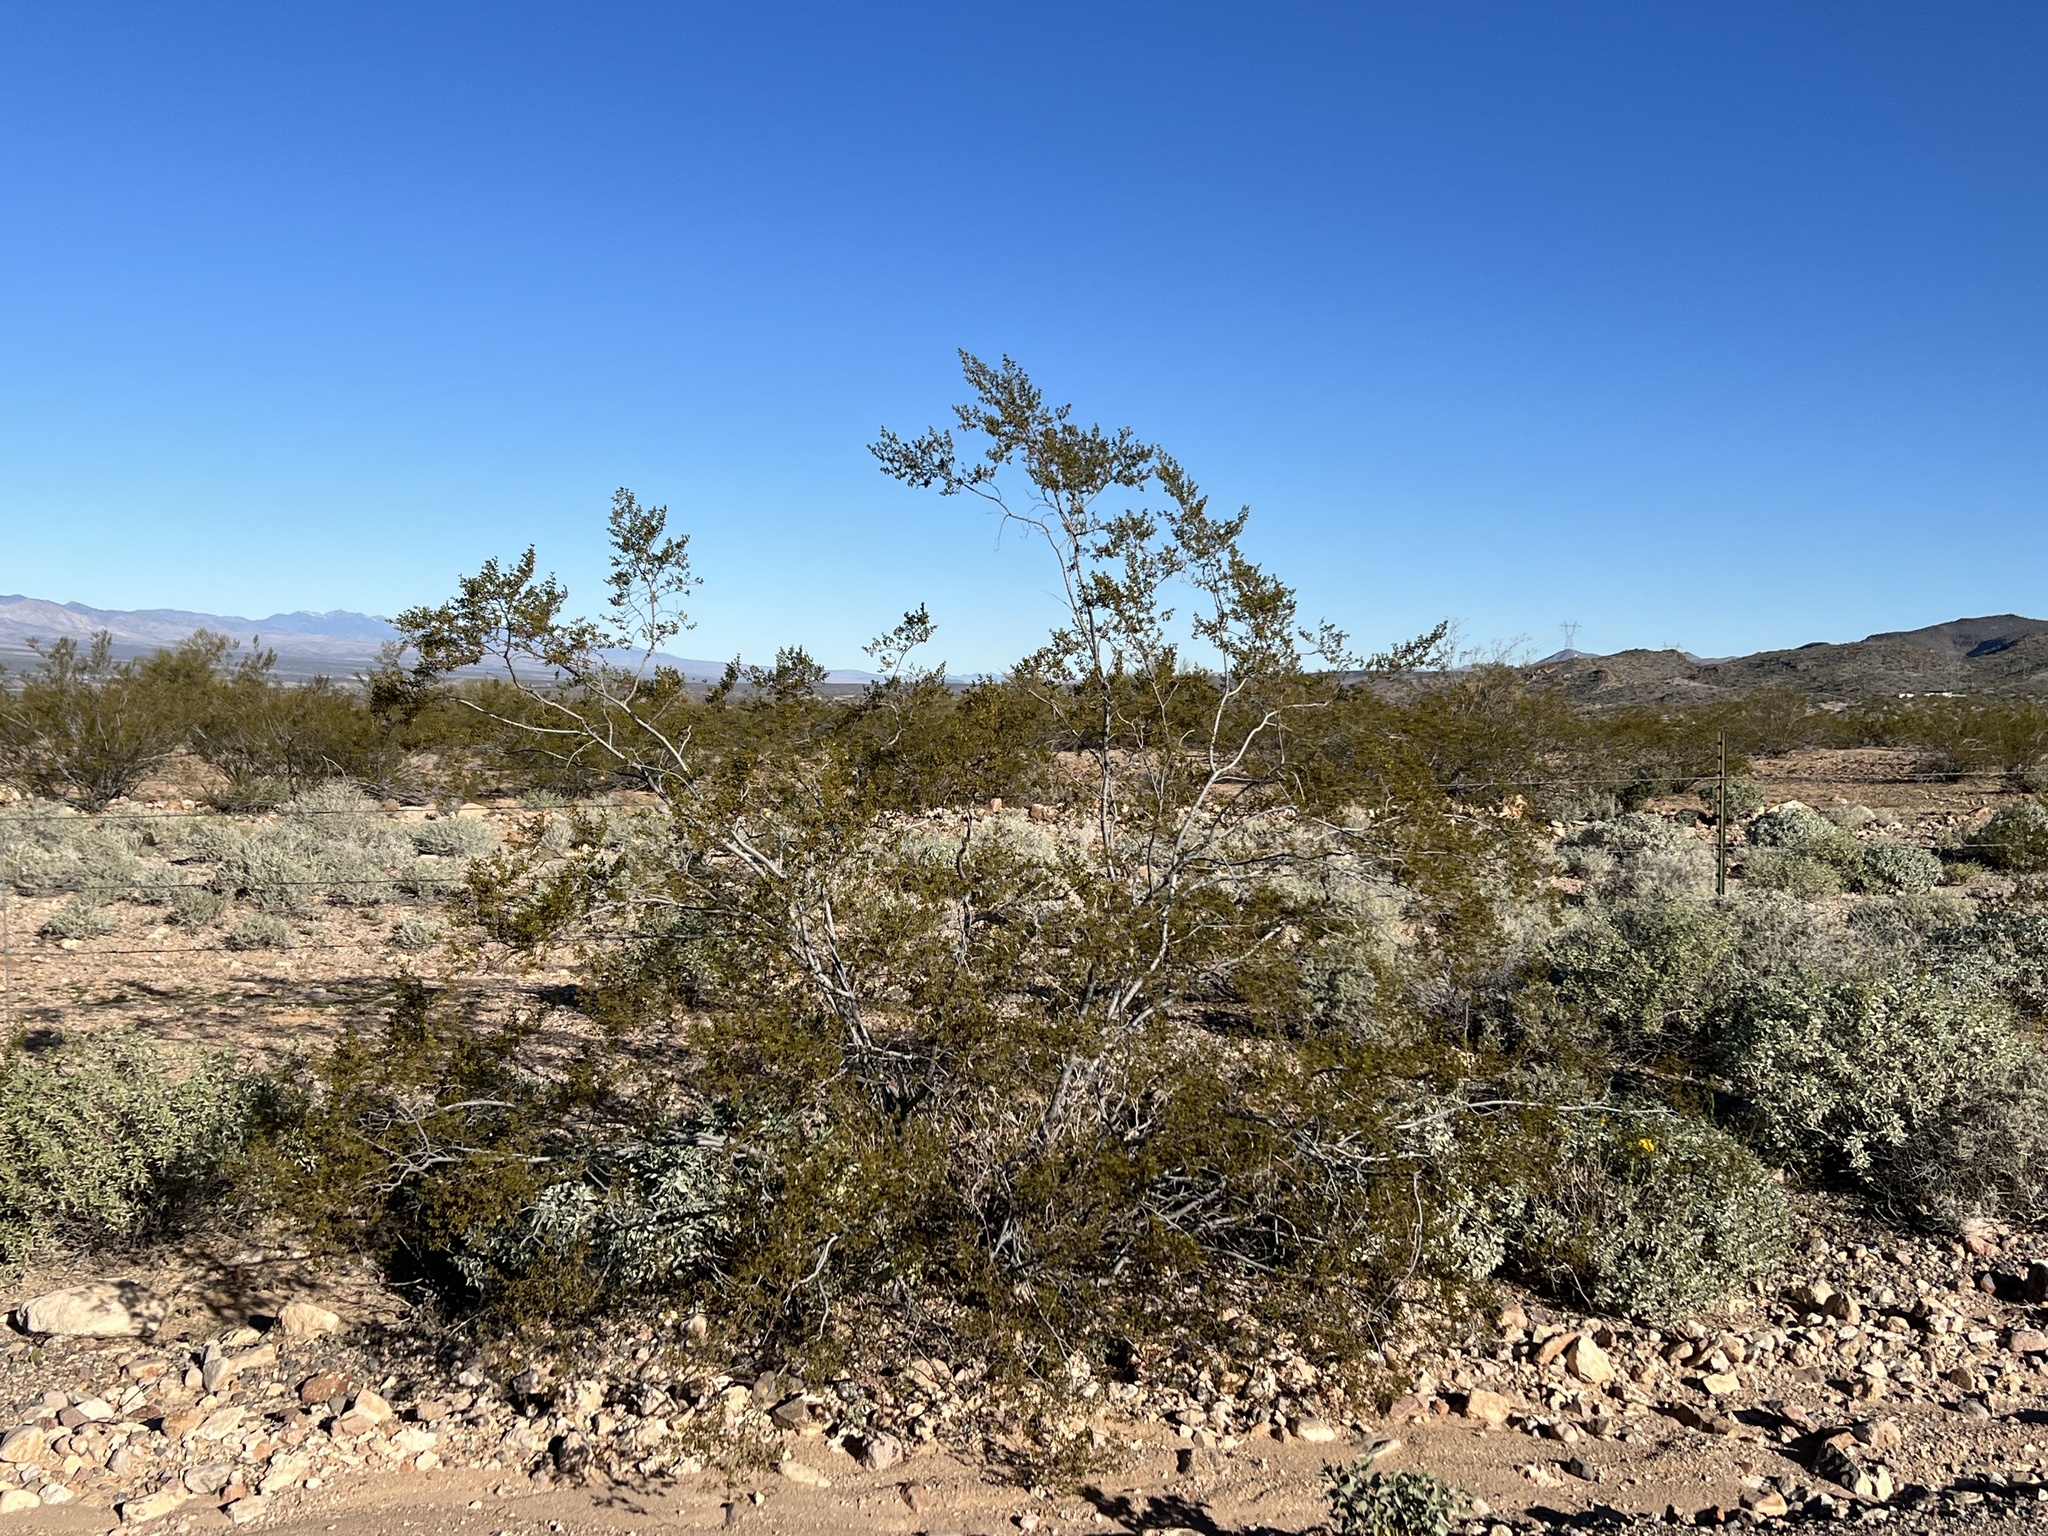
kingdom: Plantae
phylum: Tracheophyta
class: Magnoliopsida
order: Zygophyllales
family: Zygophyllaceae
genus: Larrea
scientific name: Larrea tridentata
